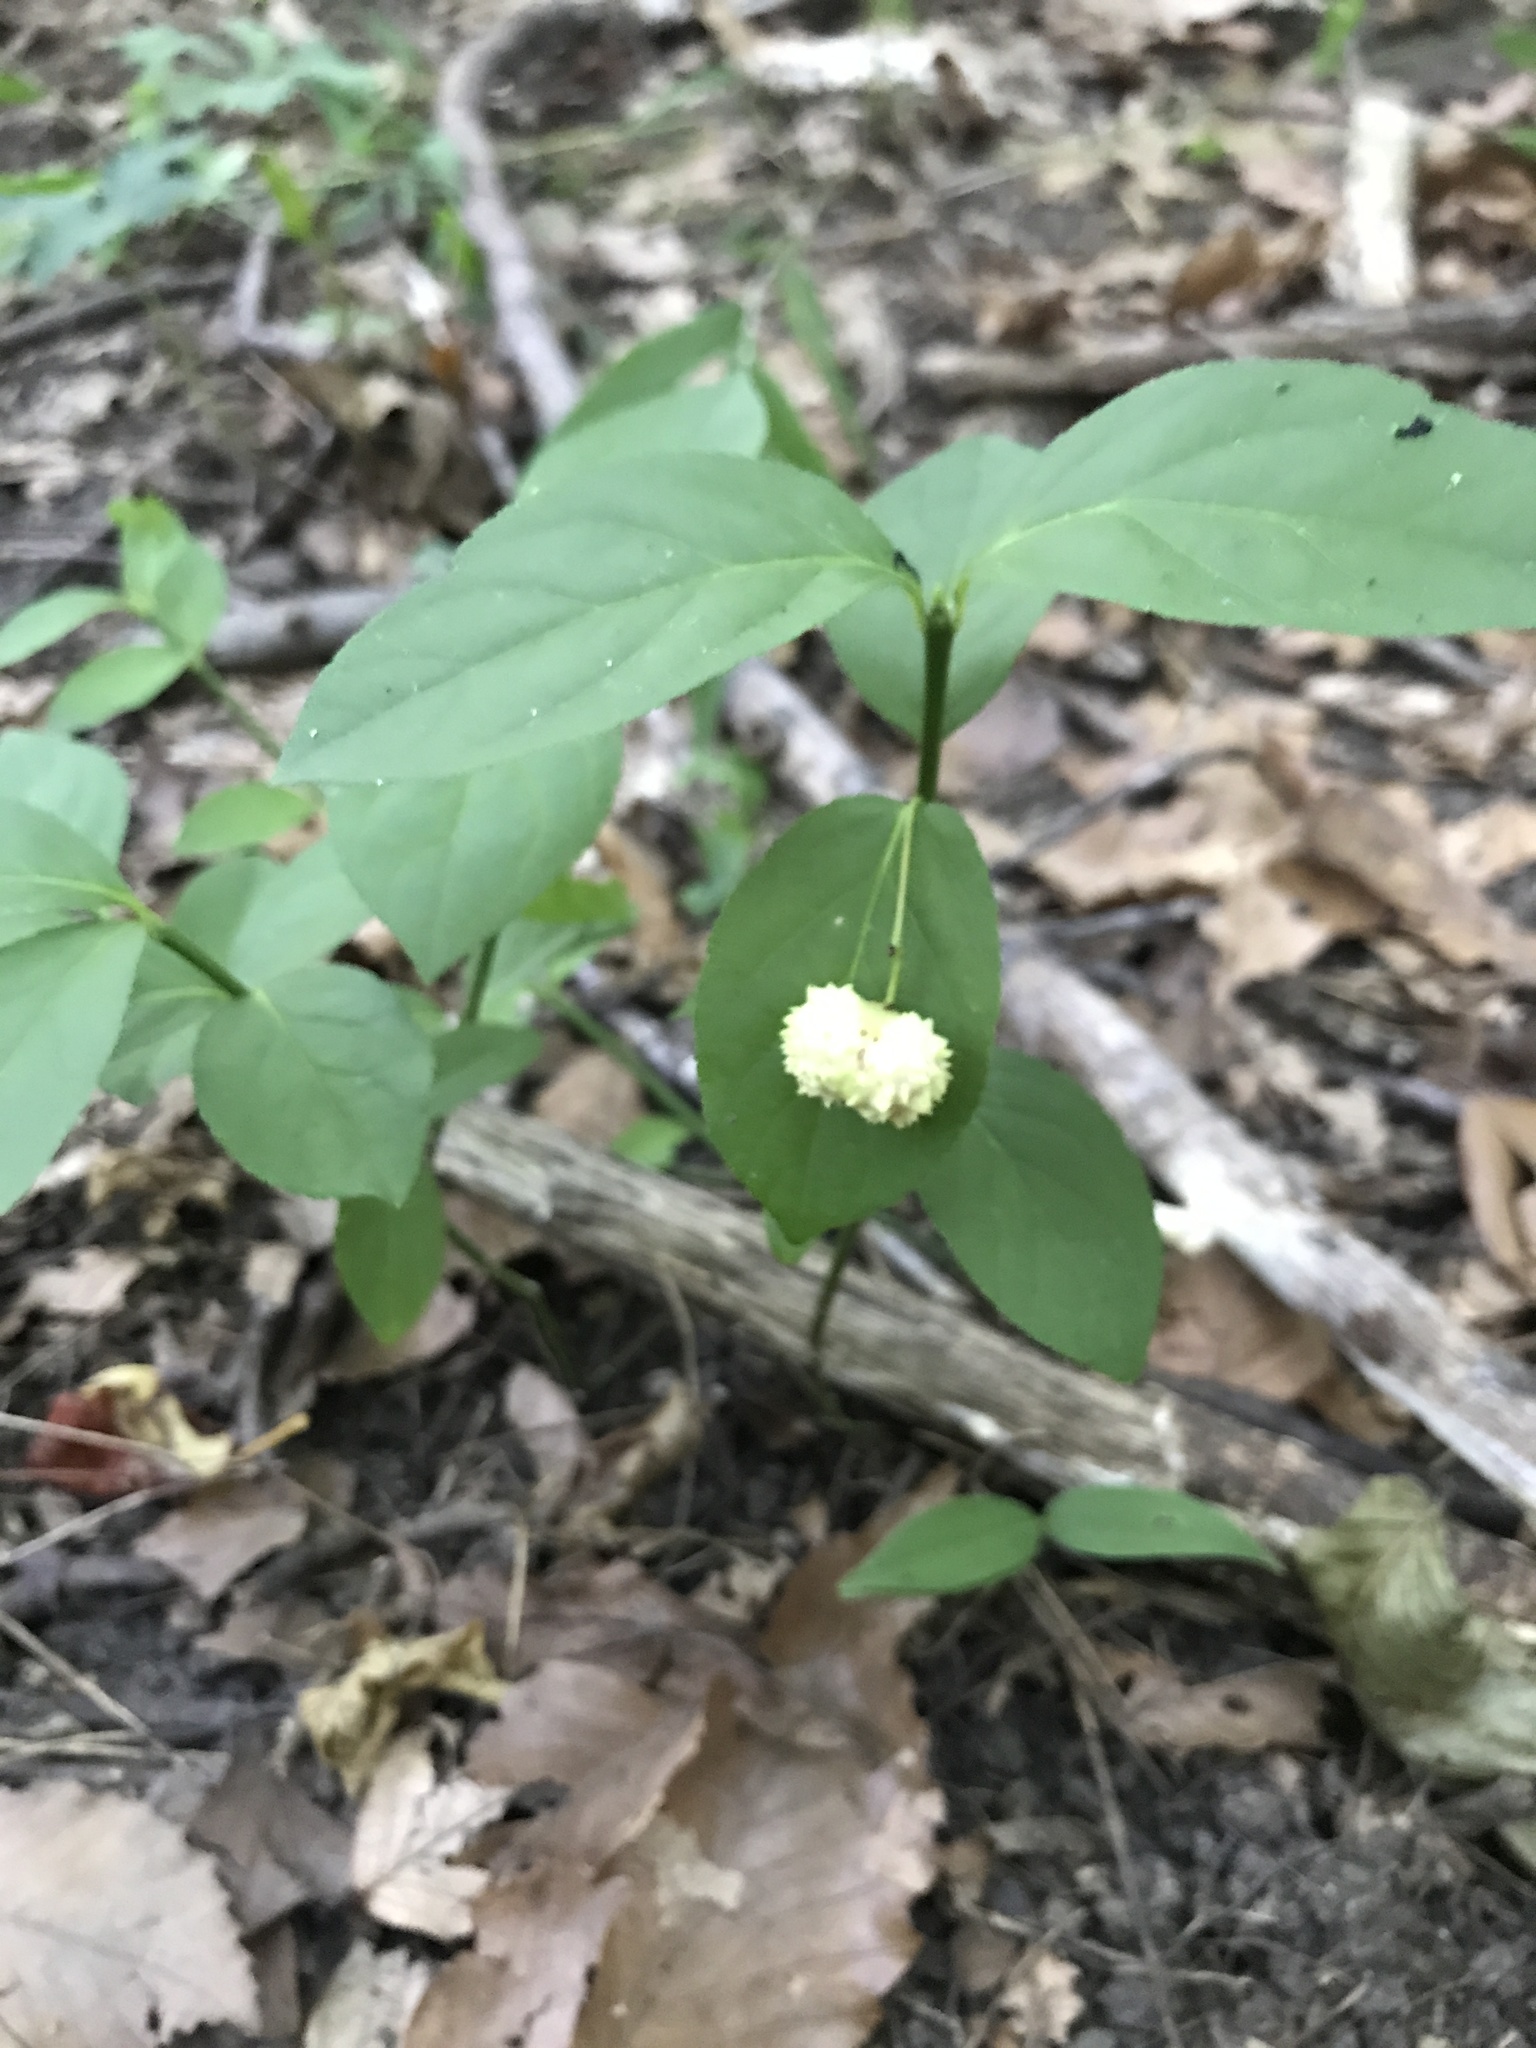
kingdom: Plantae
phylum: Tracheophyta
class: Magnoliopsida
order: Celastrales
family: Celastraceae
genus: Euonymus
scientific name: Euonymus obovatus
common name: Running strawberry-bush
